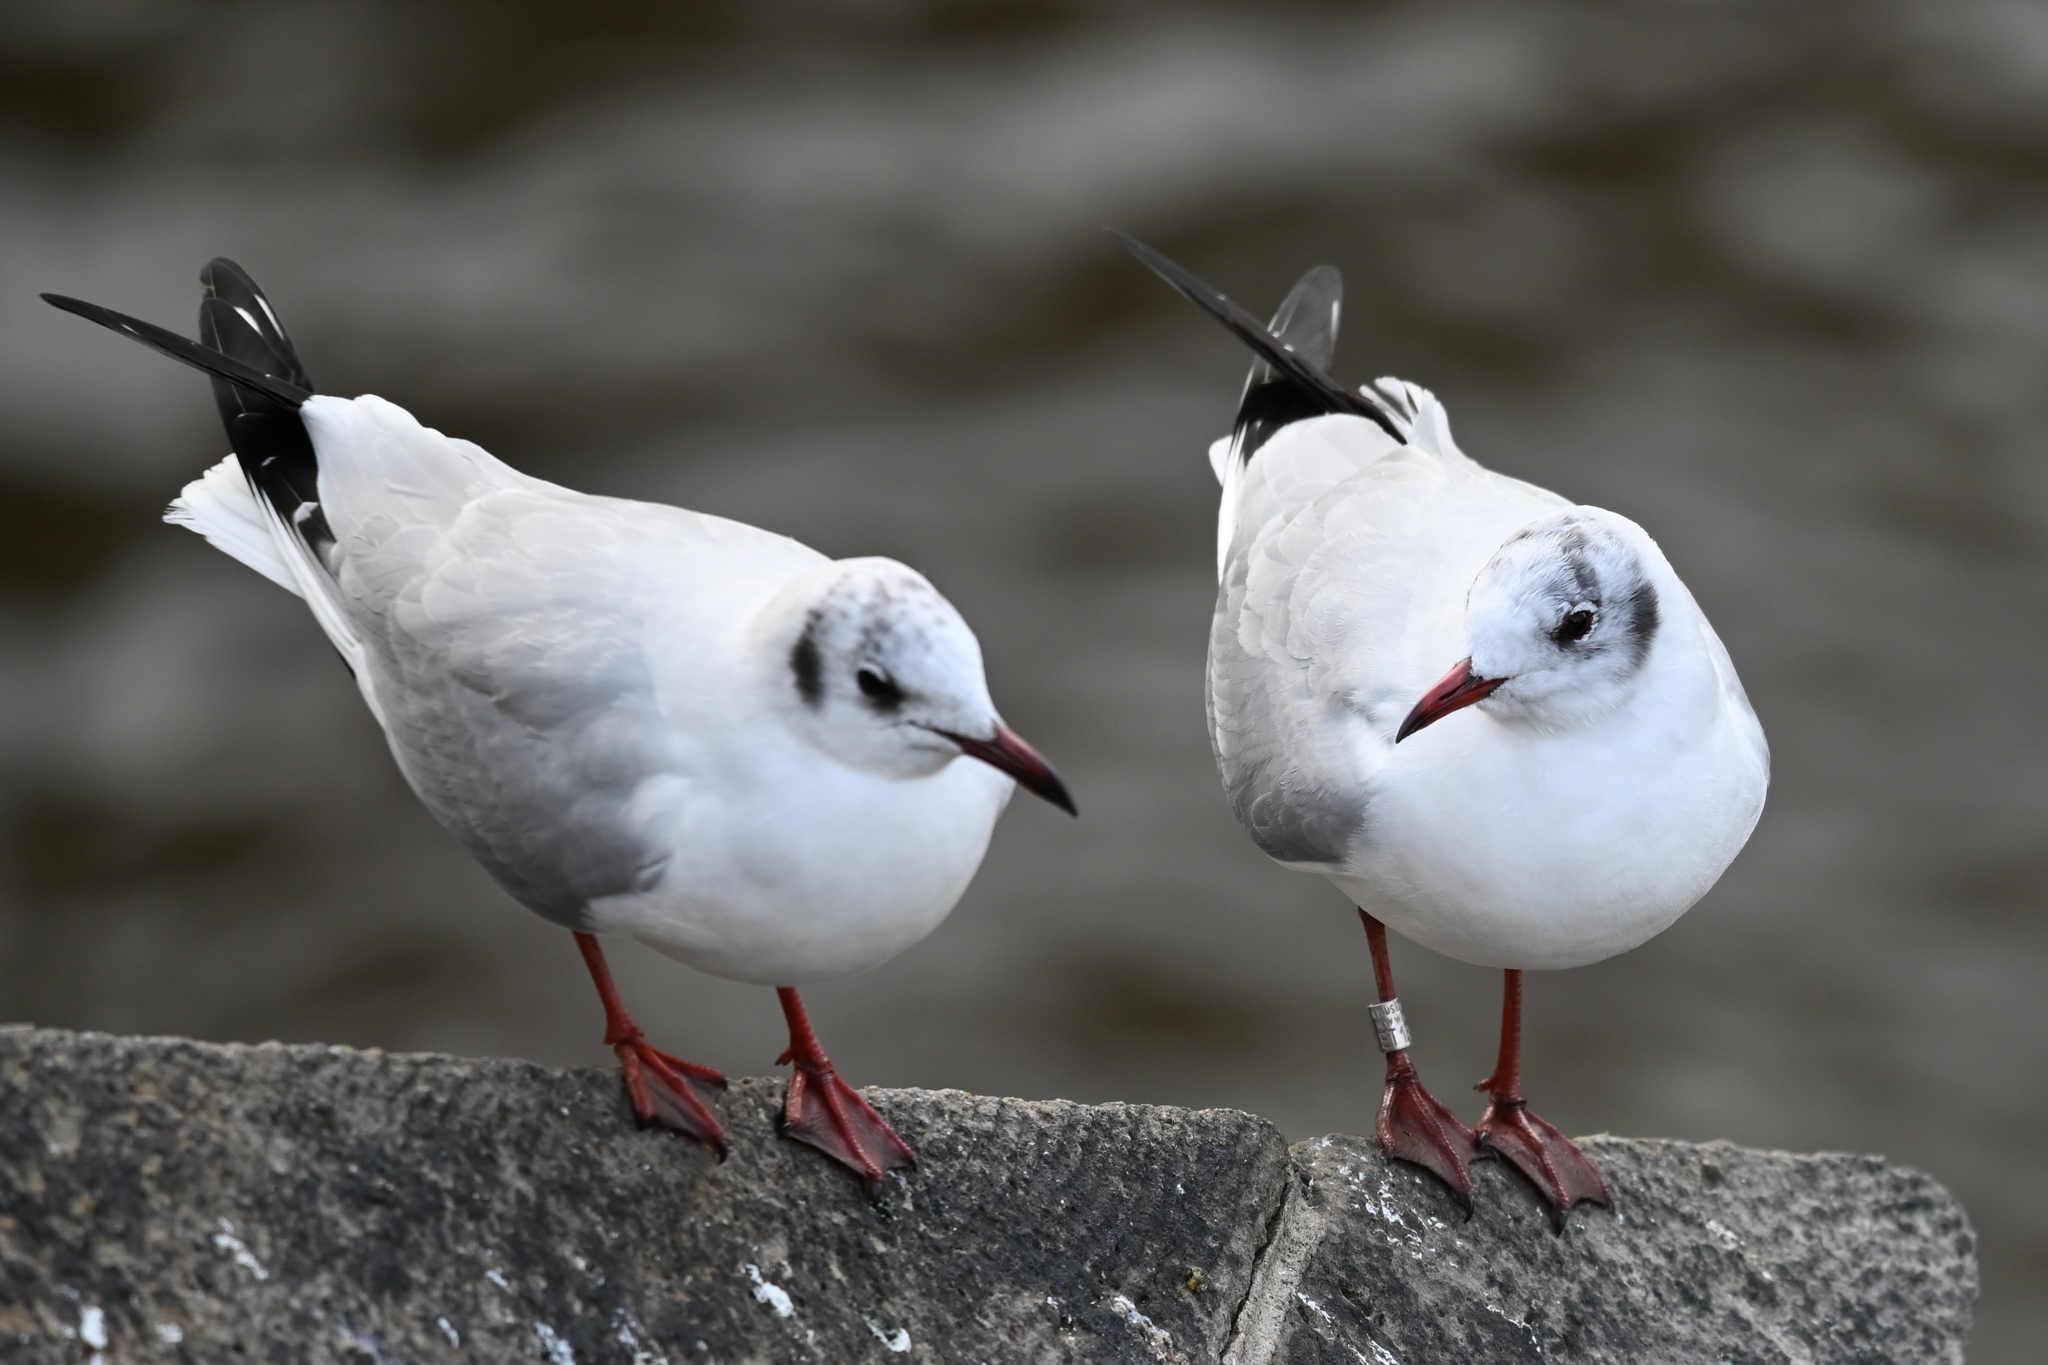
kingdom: Animalia
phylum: Chordata
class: Aves
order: Charadriiformes
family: Laridae
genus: Chroicocephalus
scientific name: Chroicocephalus ridibundus
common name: Black-headed gull
